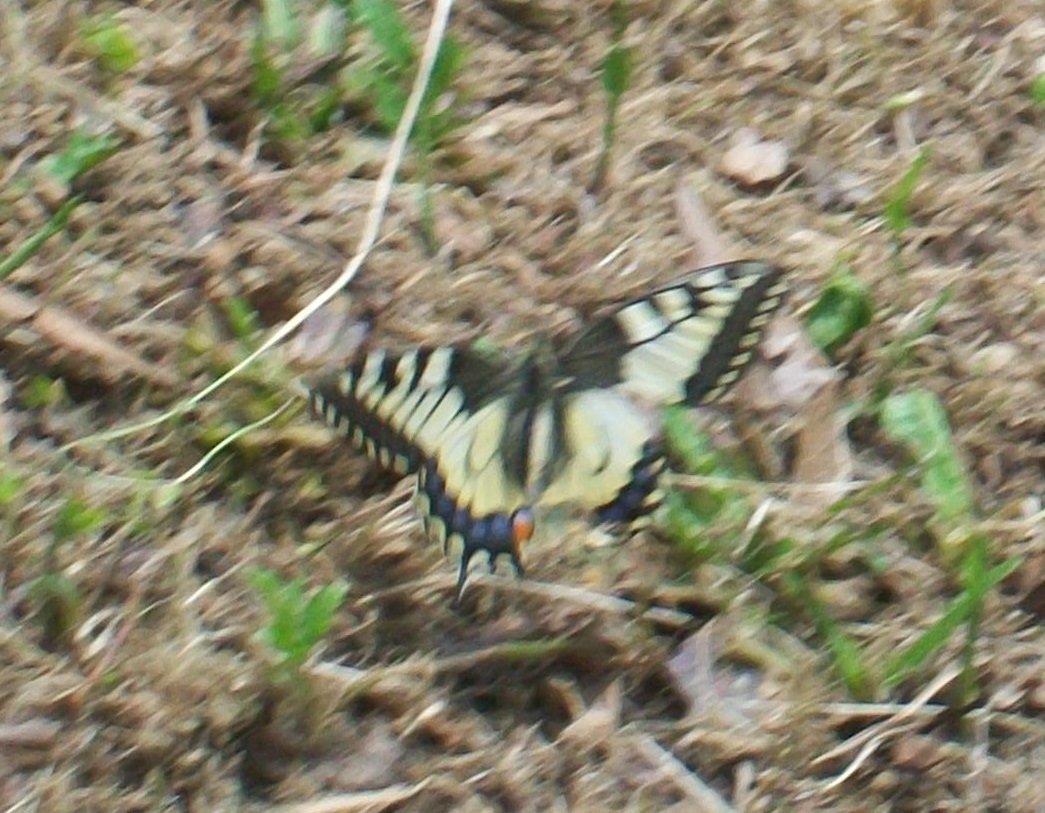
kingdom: Animalia
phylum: Arthropoda
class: Insecta
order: Lepidoptera
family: Papilionidae
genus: Papilio
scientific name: Papilio machaon
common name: Swallowtail
